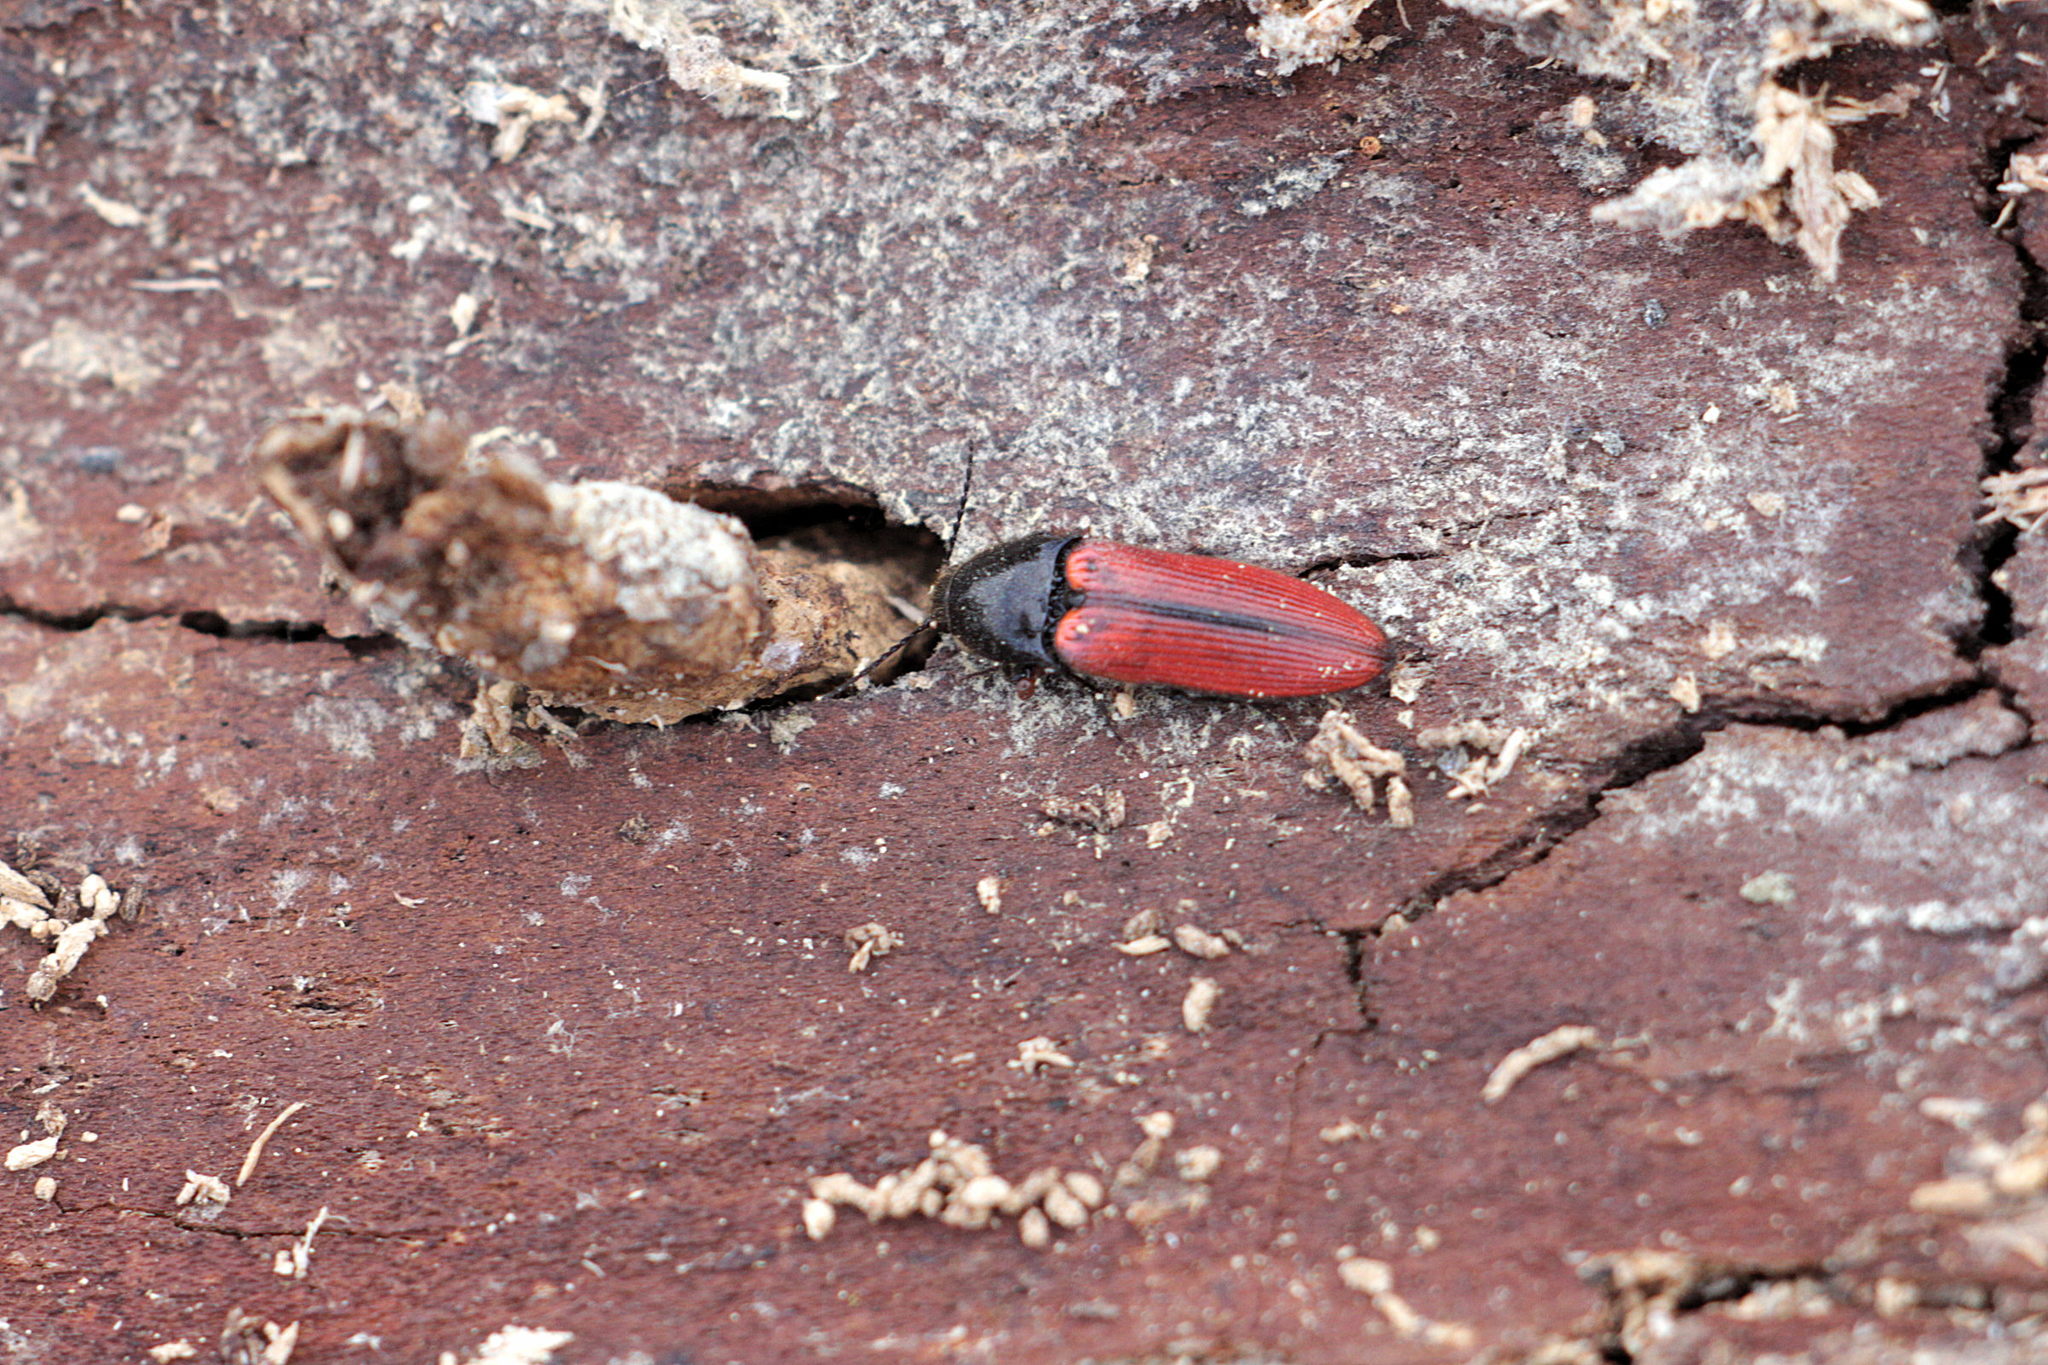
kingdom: Animalia
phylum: Arthropoda
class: Insecta
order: Coleoptera
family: Elateridae
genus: Ampedus
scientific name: Ampedus sanguinolentus
